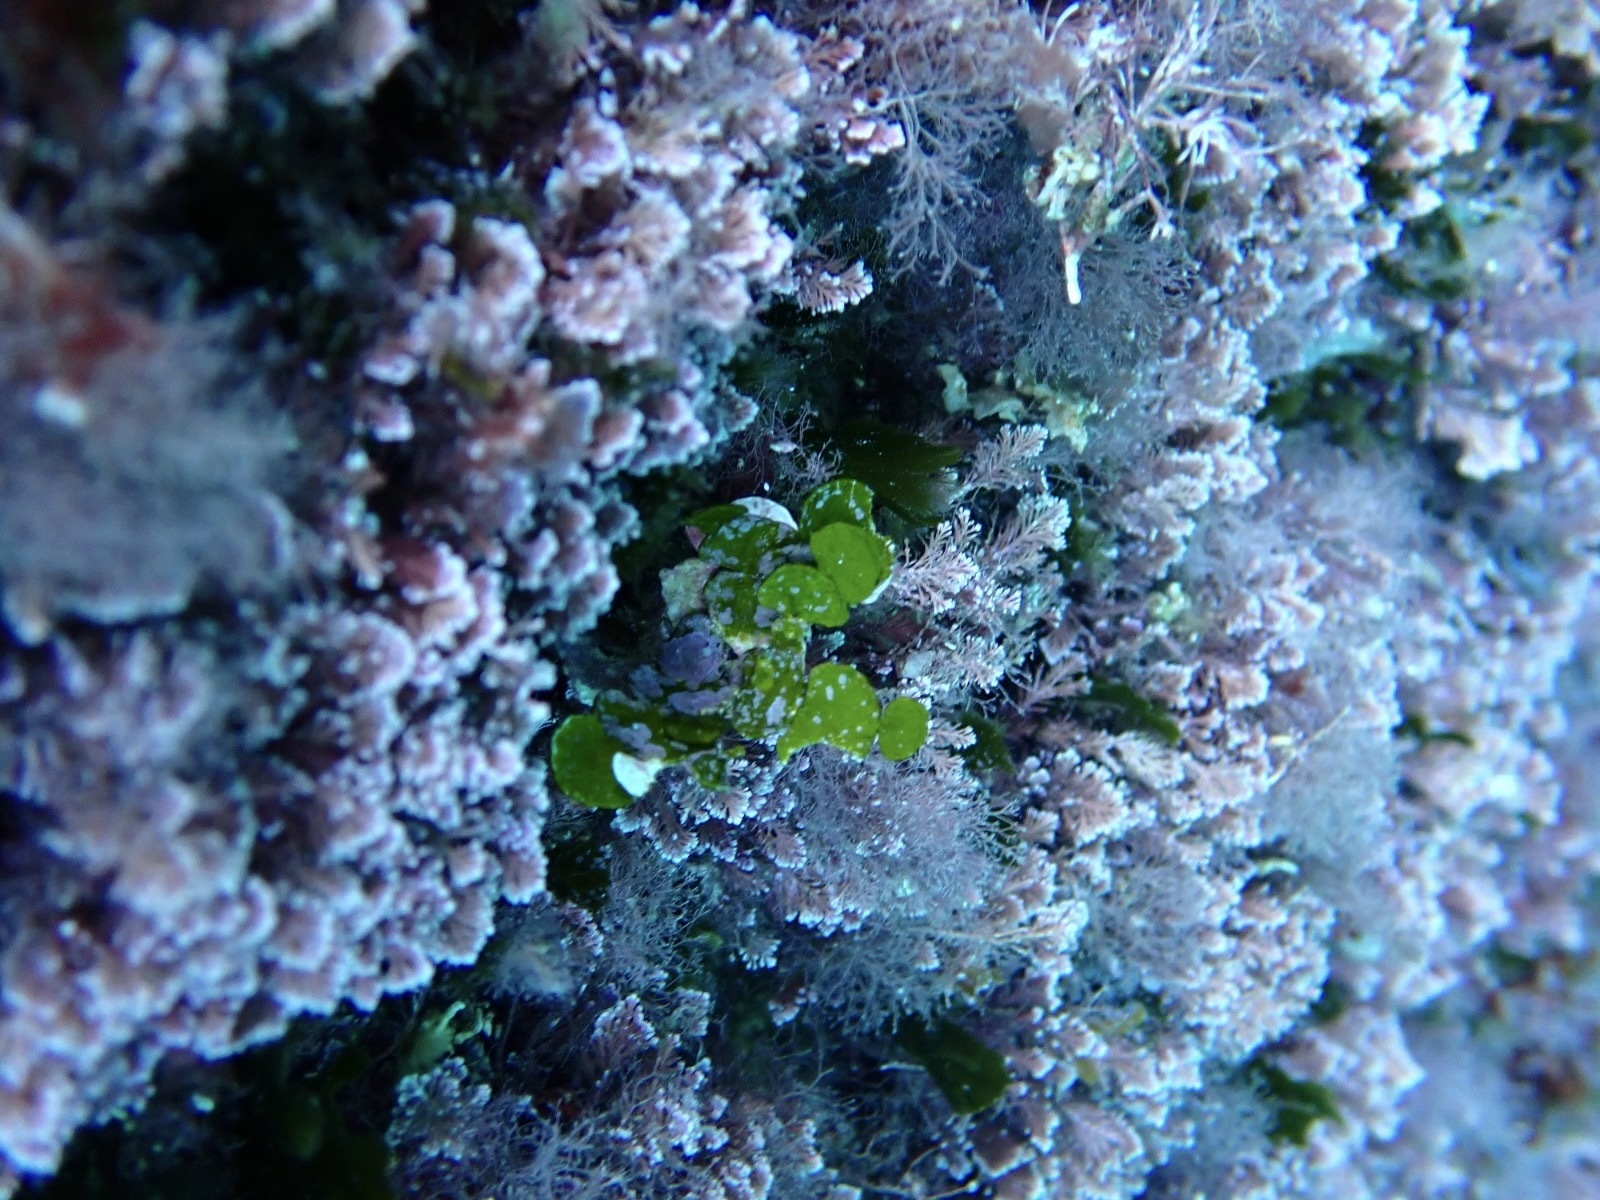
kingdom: Plantae
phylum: Chlorophyta
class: Ulvophyceae
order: Bryopsidales
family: Halimedaceae
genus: Halimeda
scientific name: Halimeda tuna
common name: Stalked lettuce leaf algae
